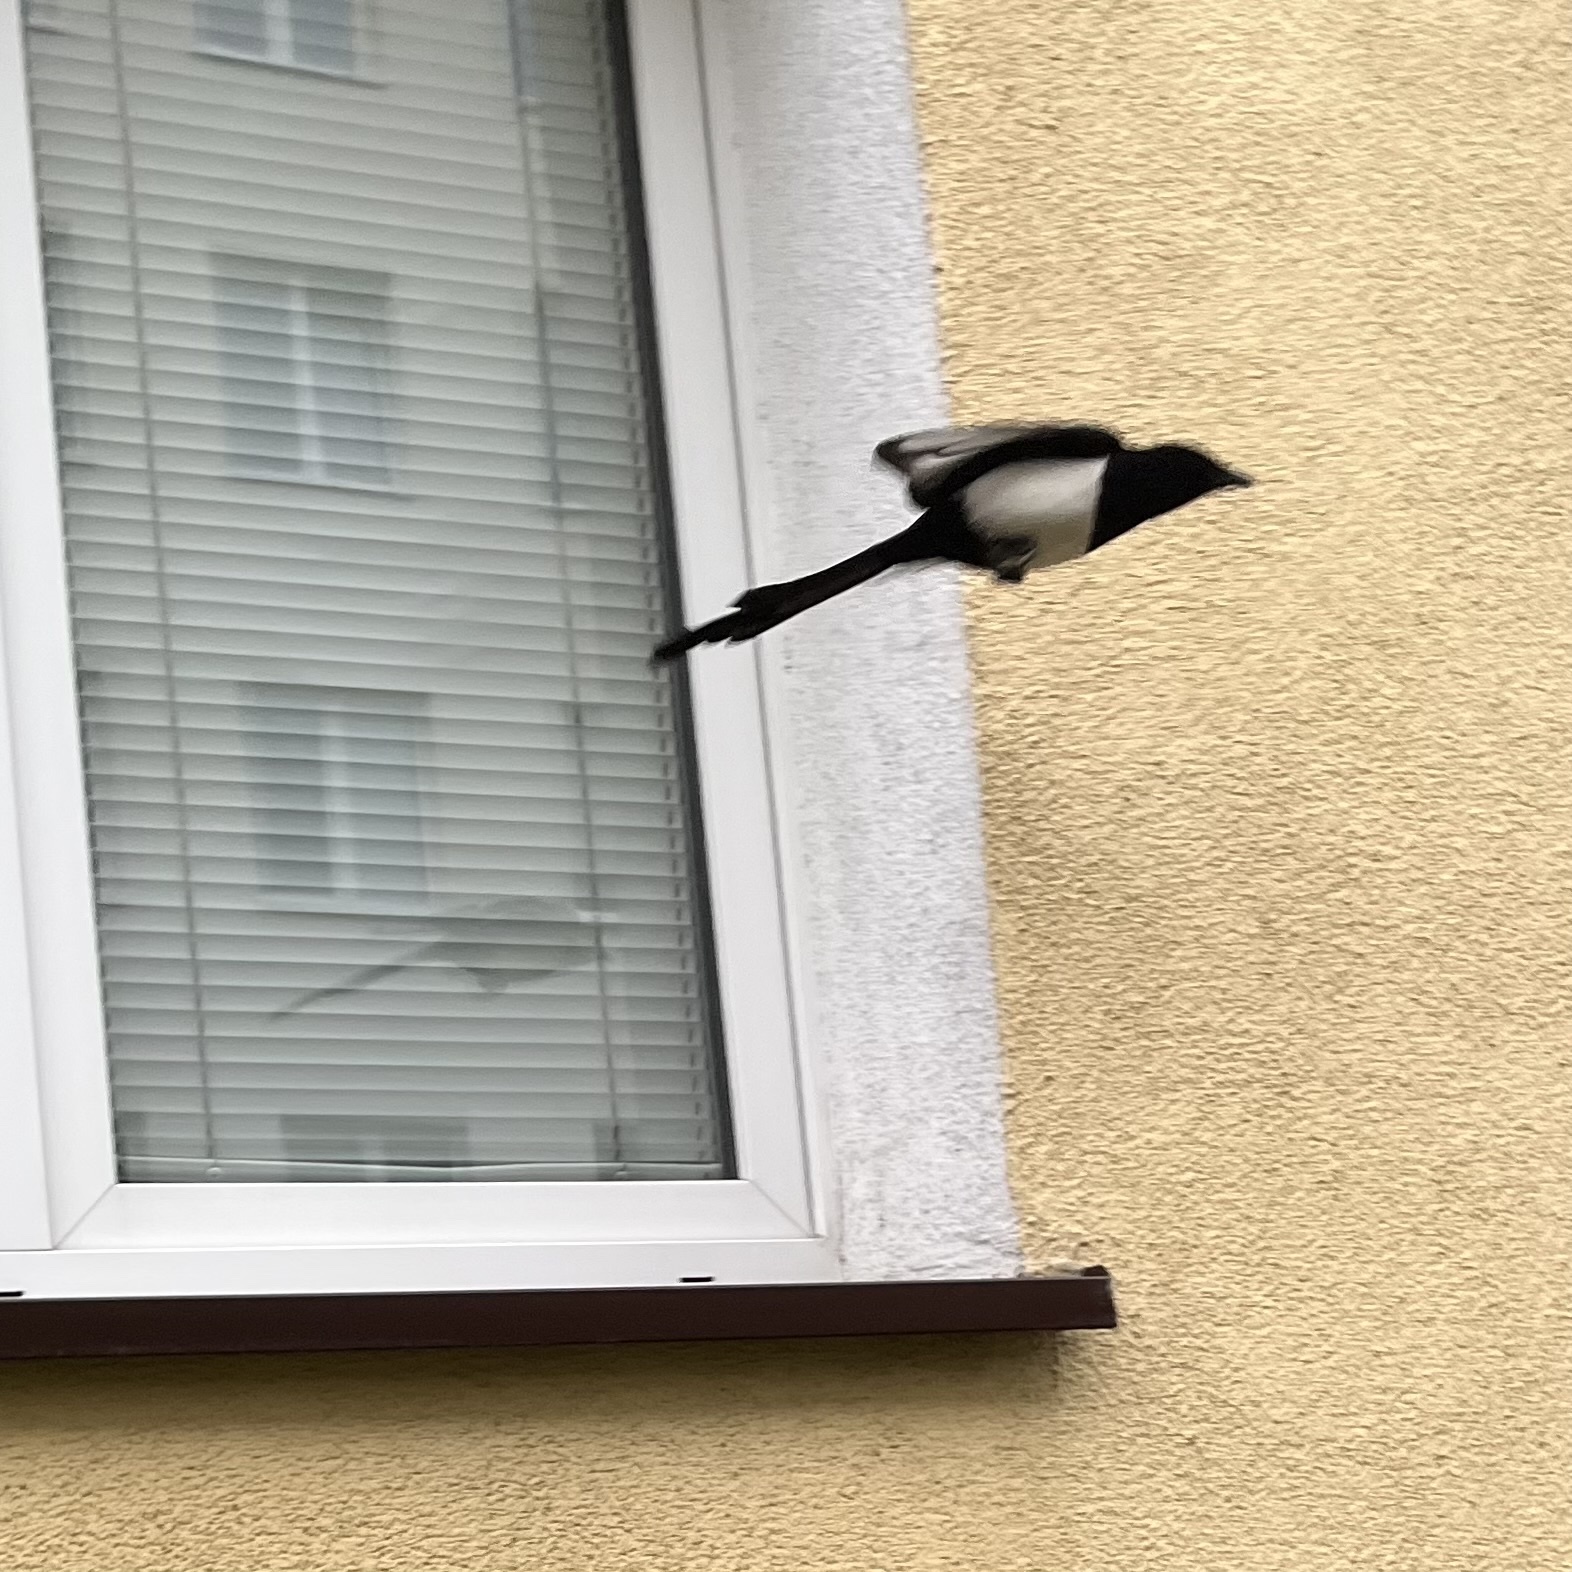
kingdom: Animalia
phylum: Chordata
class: Aves
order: Passeriformes
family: Corvidae
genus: Pica
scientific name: Pica pica
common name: Eurasian magpie
